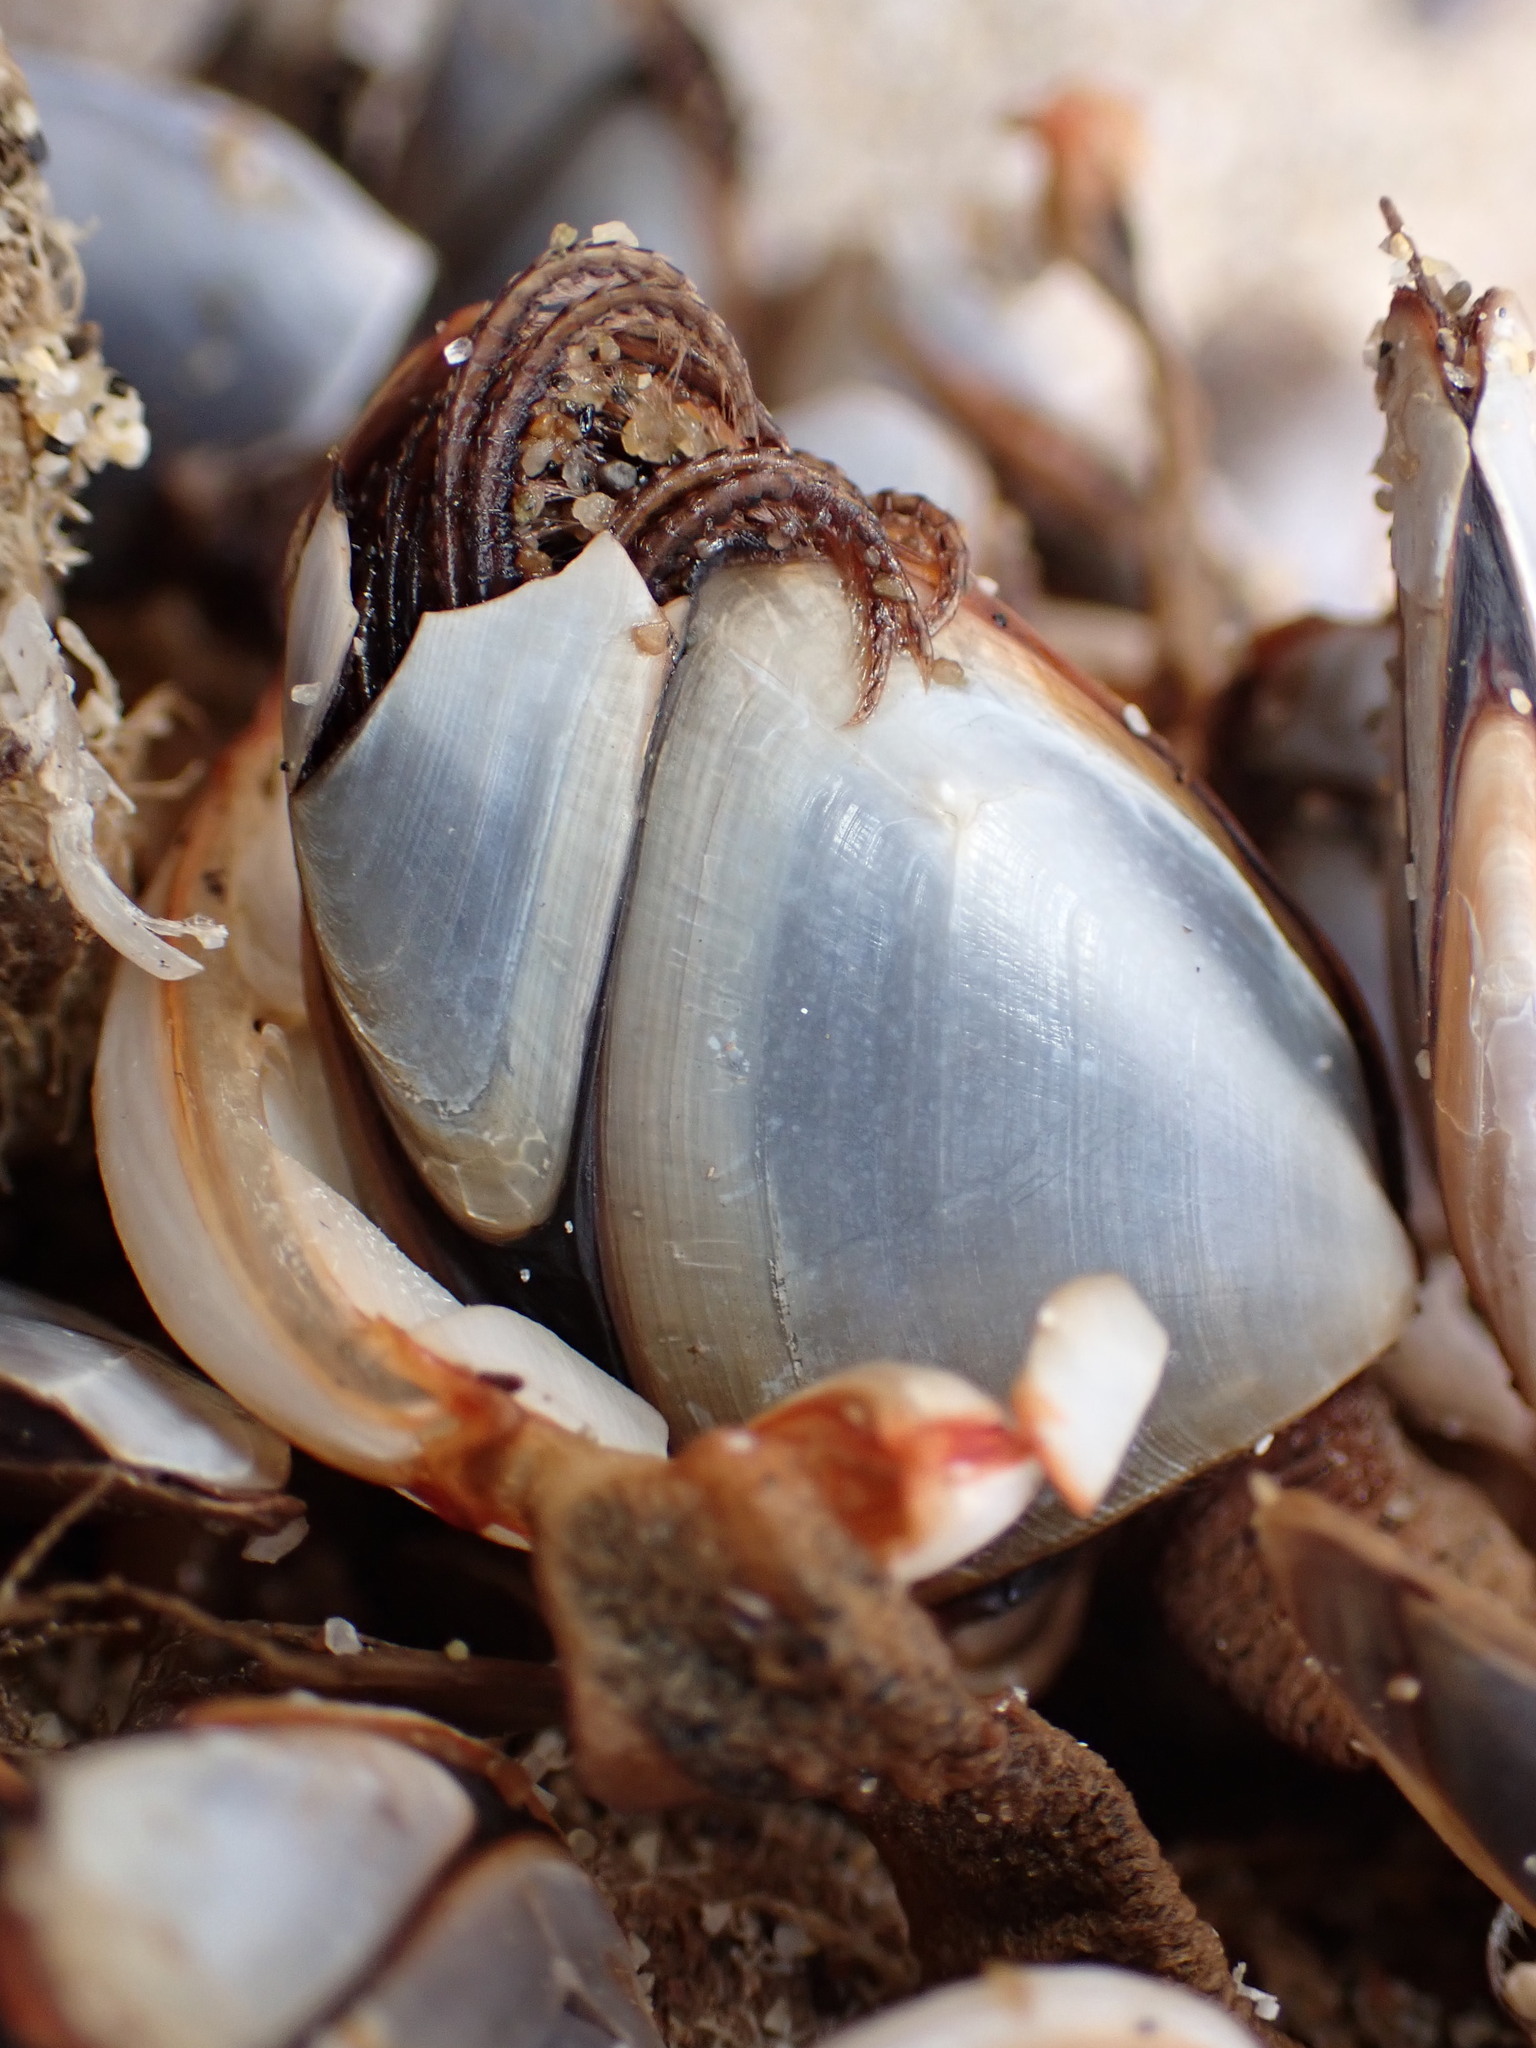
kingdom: Animalia
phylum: Arthropoda
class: Maxillopoda
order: Pedunculata
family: Lepadidae
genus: Lepas
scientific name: Lepas anatifera
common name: Common goose barnacle
